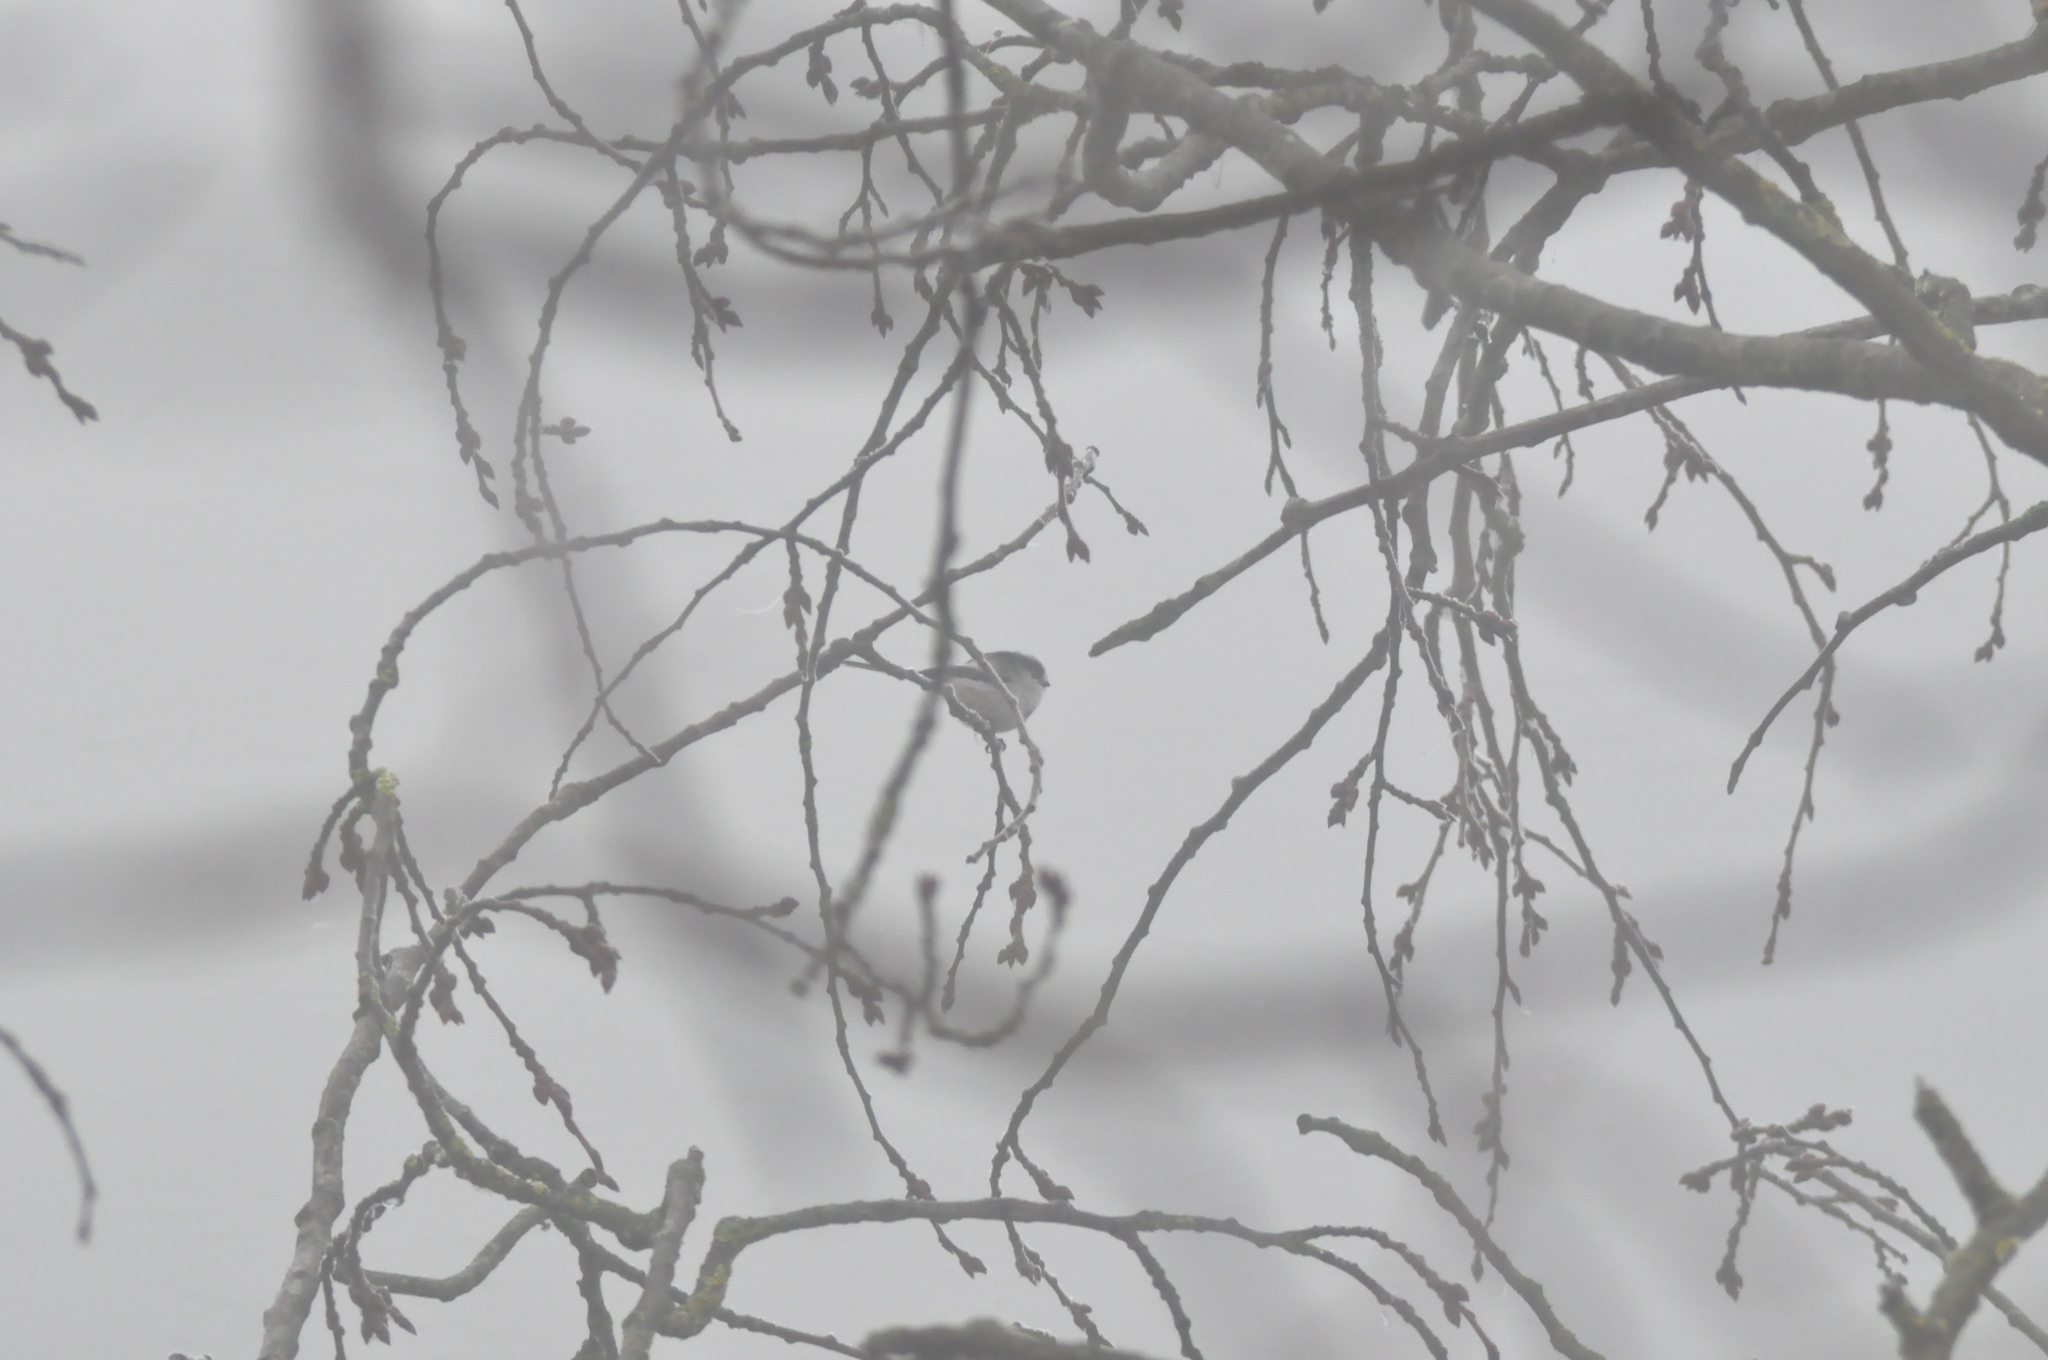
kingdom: Animalia
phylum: Chordata
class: Aves
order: Passeriformes
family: Aegithalidae
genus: Aegithalos
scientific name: Aegithalos caudatus
